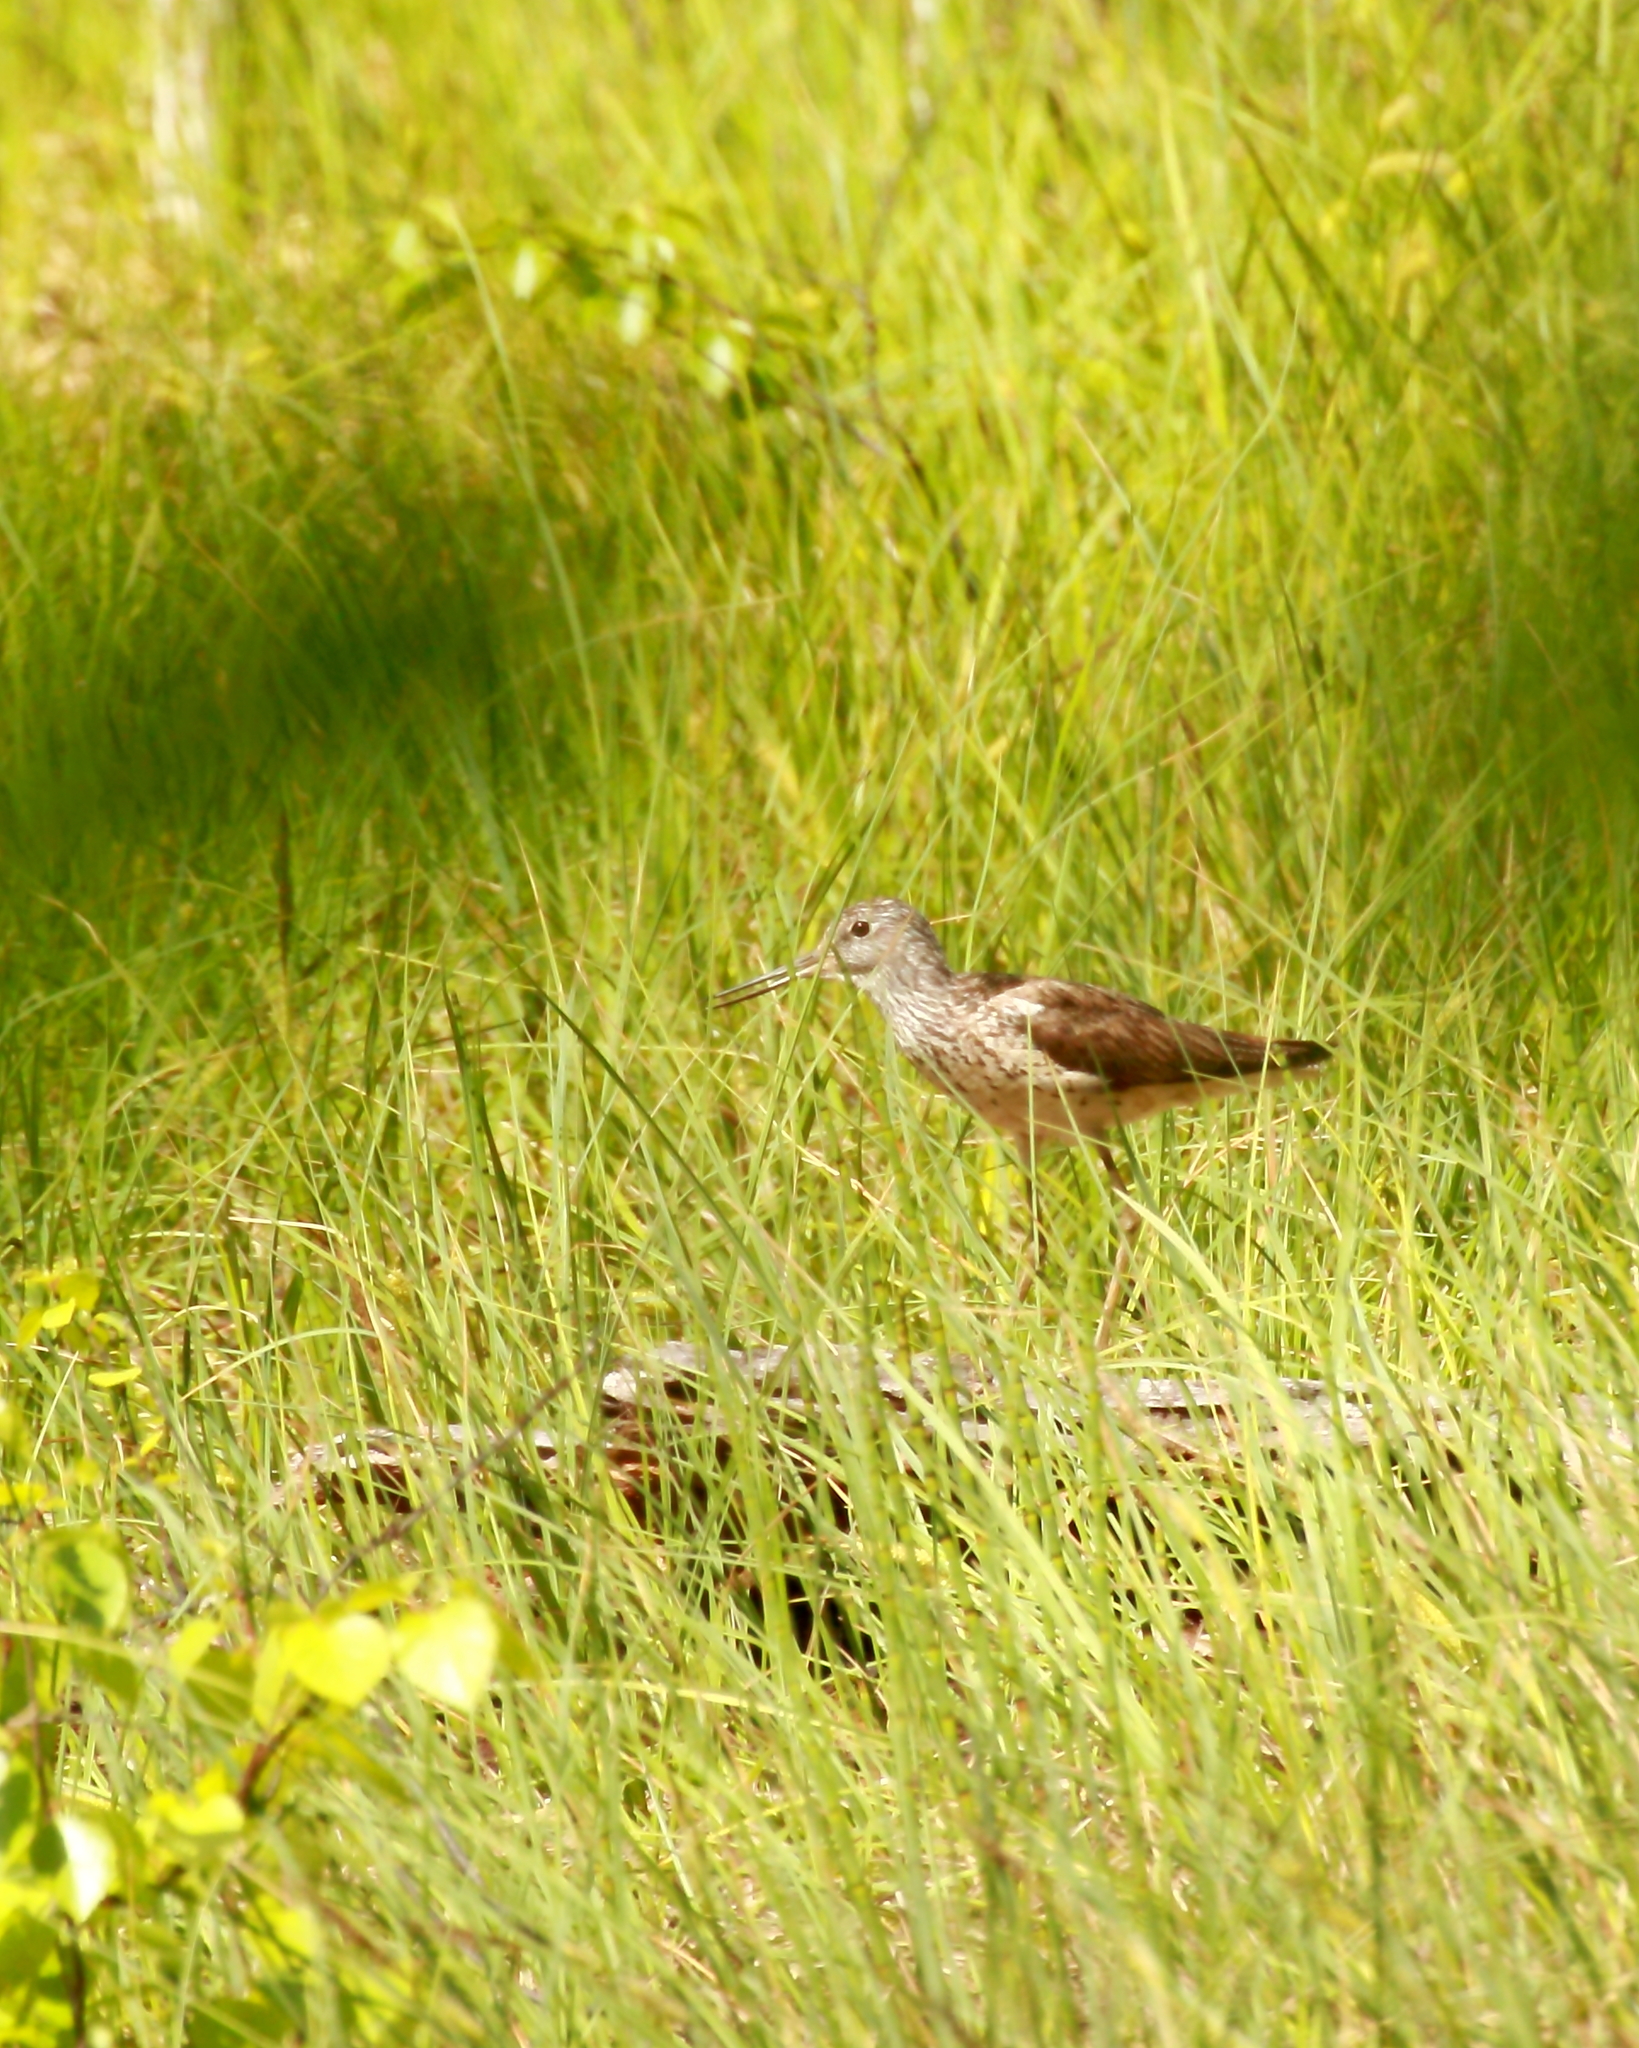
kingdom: Animalia
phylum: Chordata
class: Aves
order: Charadriiformes
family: Scolopacidae
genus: Tringa
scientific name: Tringa nebularia
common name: Common greenshank
